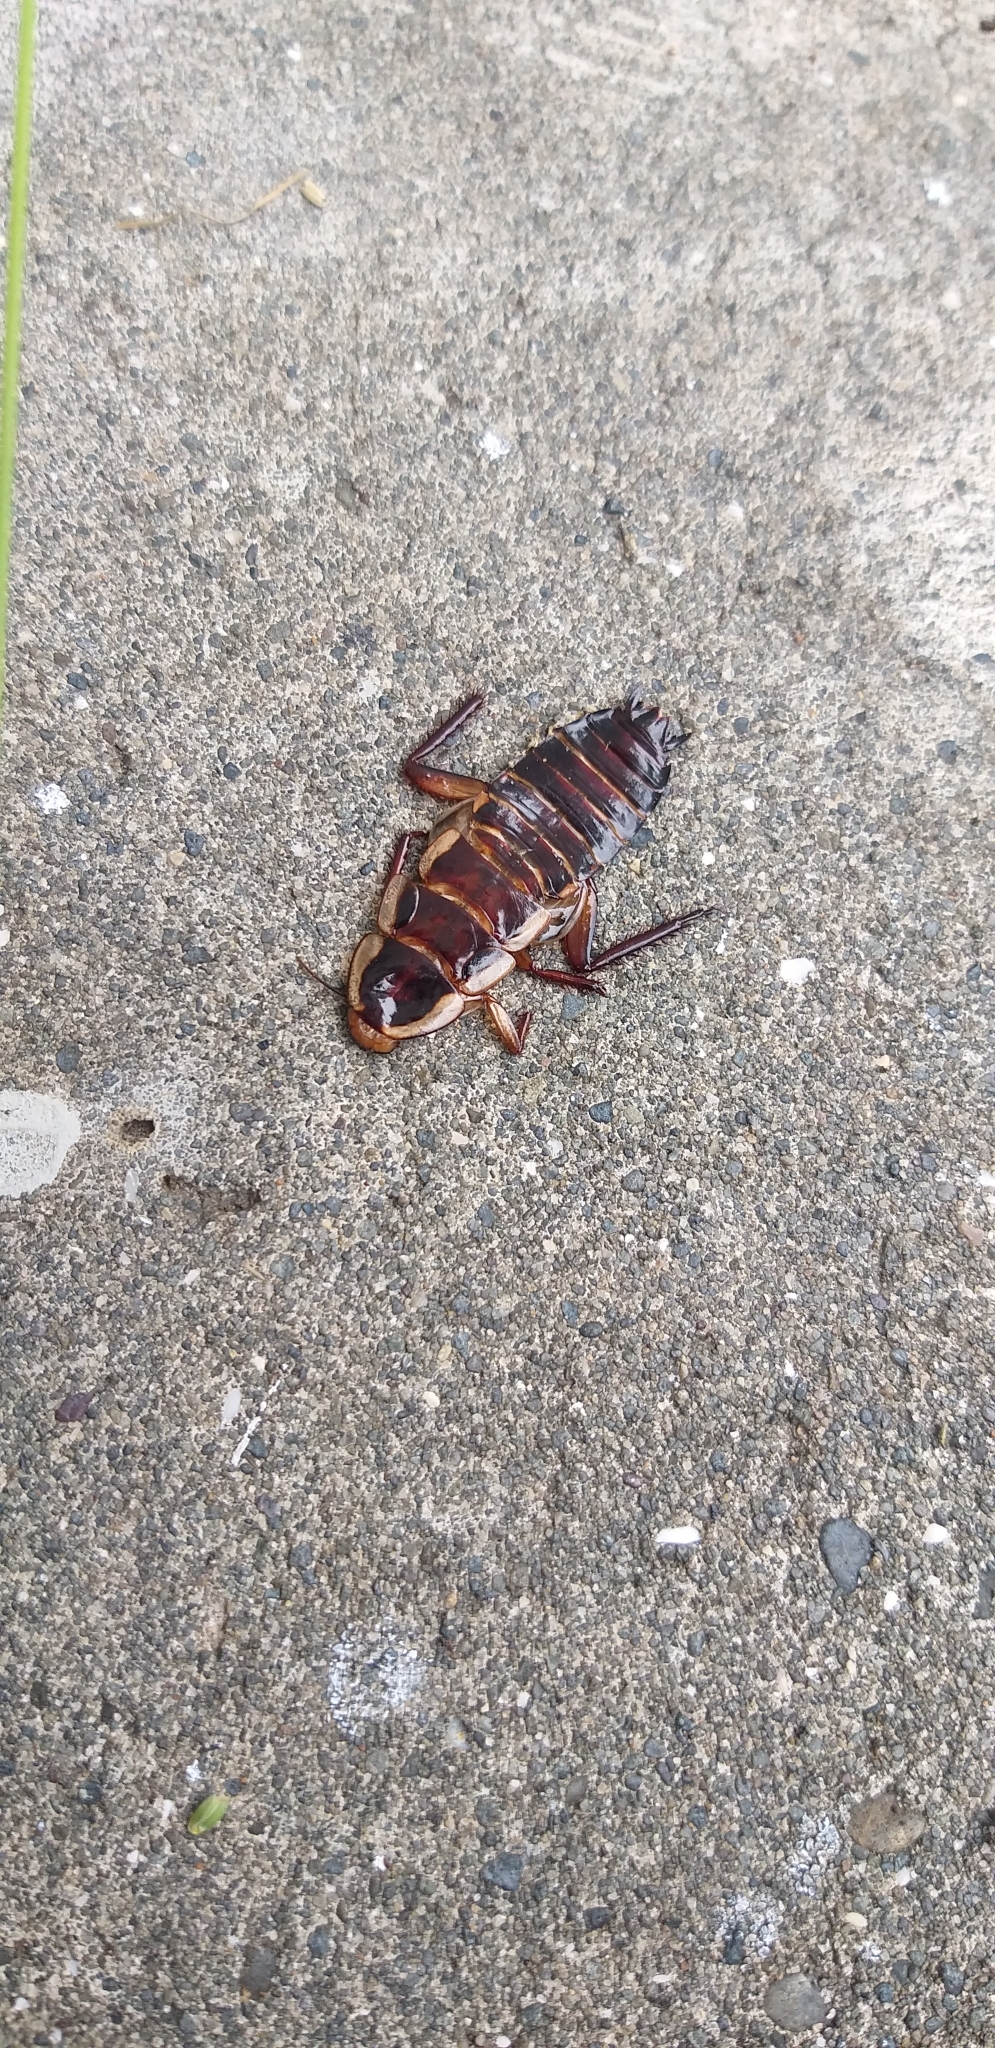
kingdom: Animalia
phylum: Arthropoda
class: Insecta
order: Blattodea
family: Blattidae
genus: Drymaplaneta
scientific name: Drymaplaneta semivitta
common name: Gisborne cockroach
